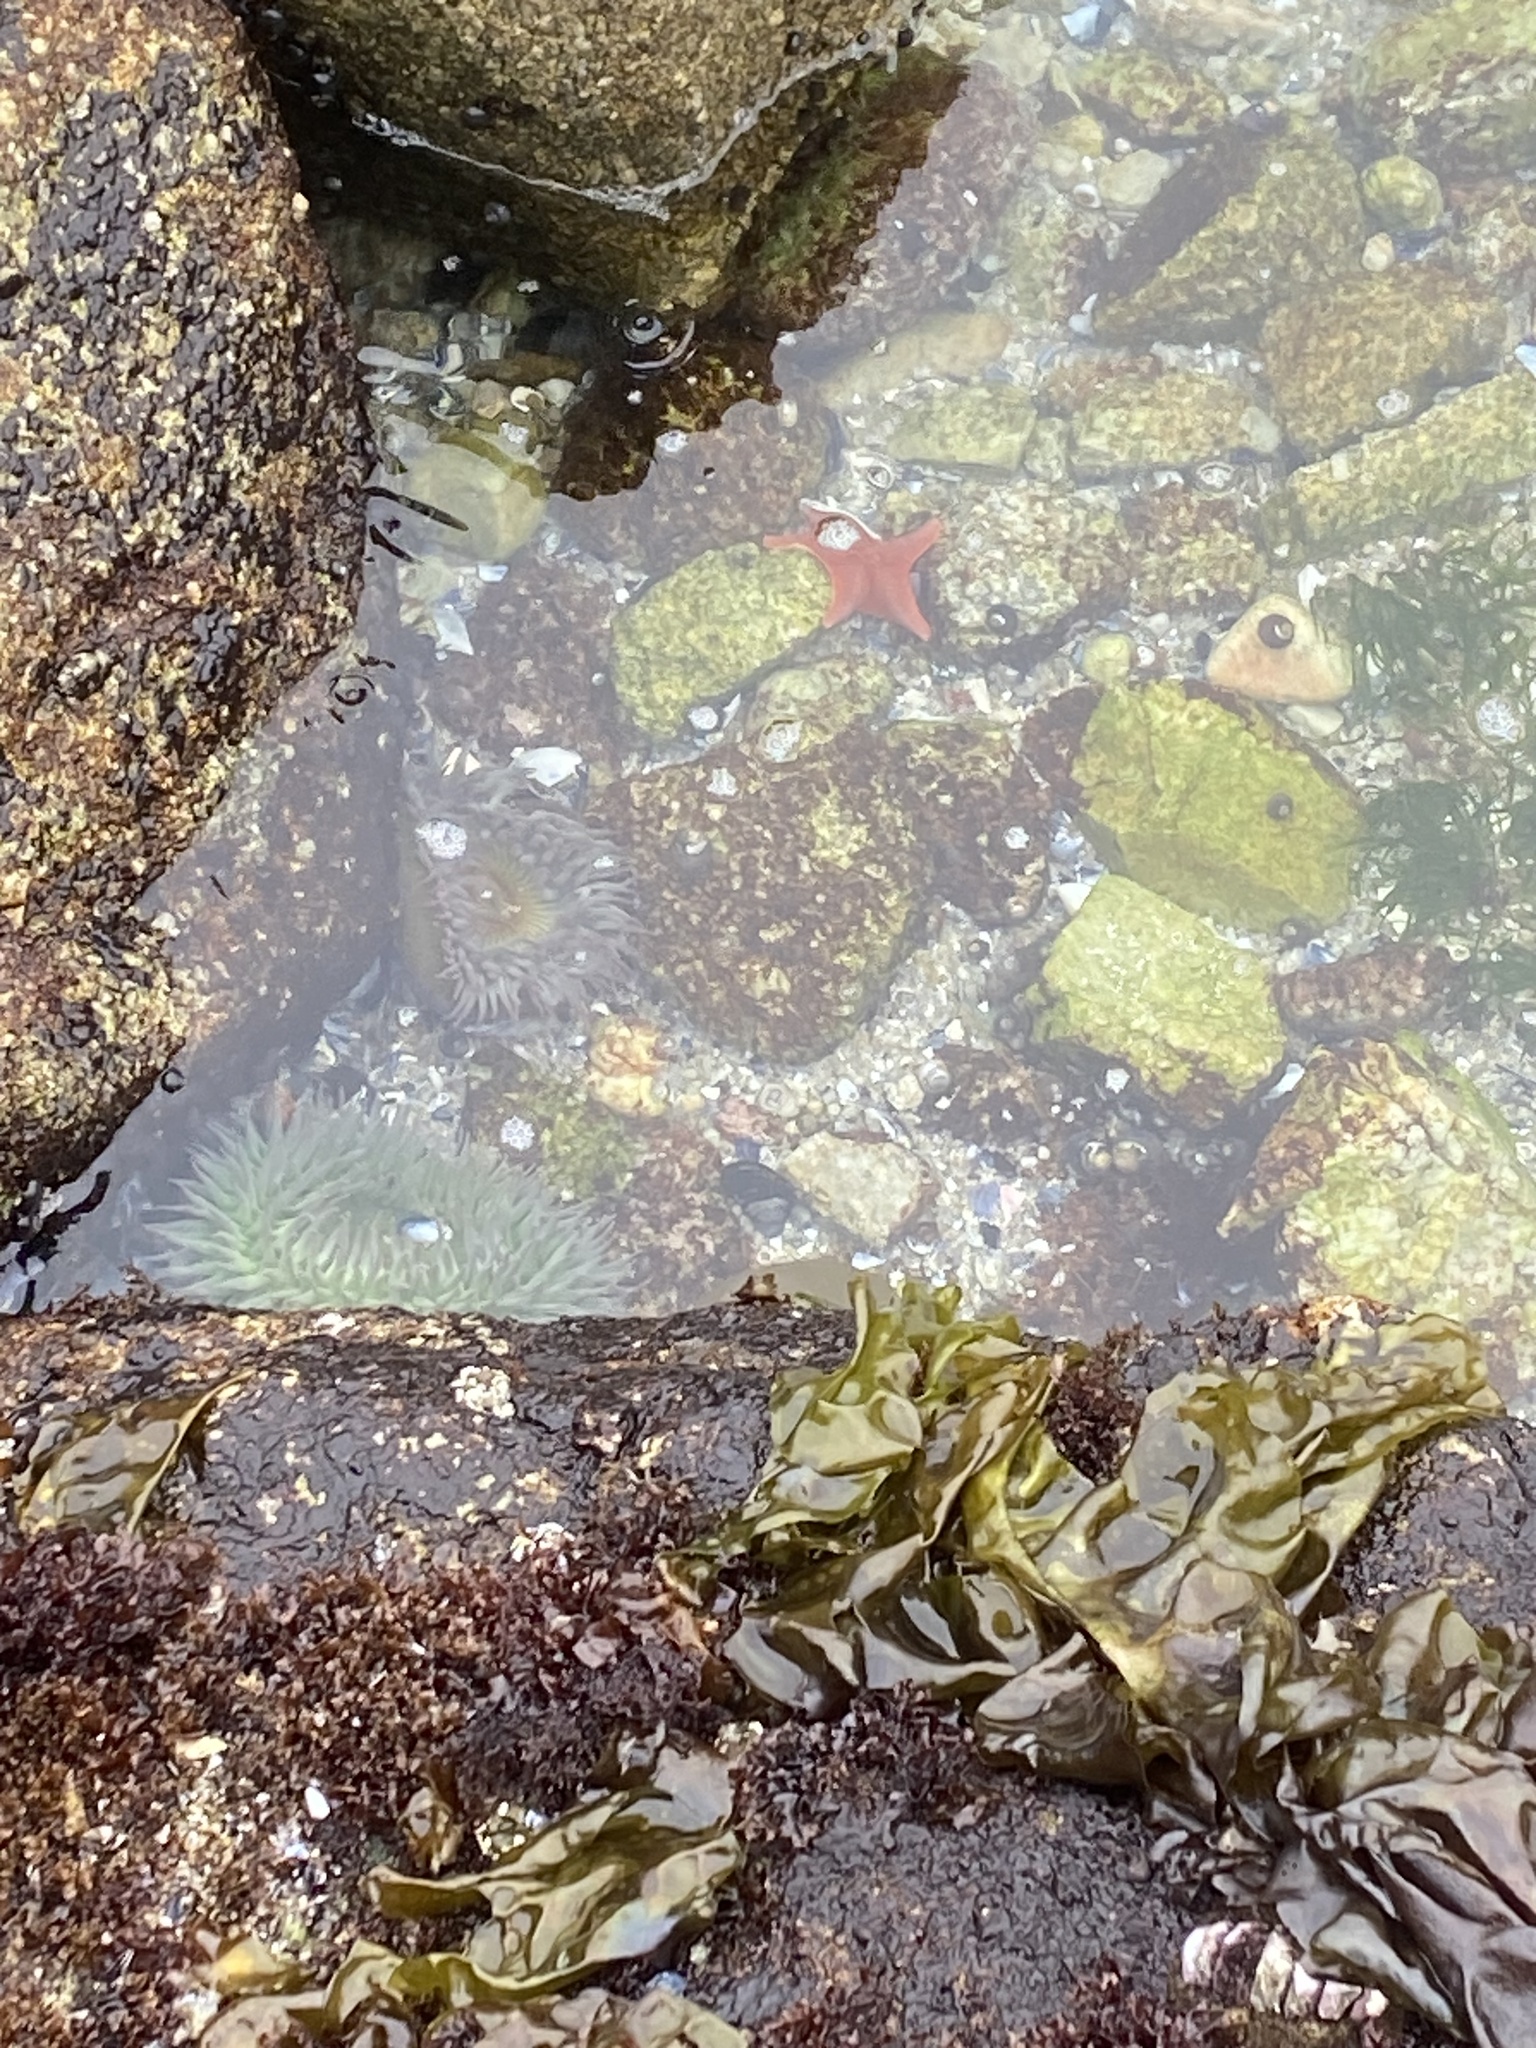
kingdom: Animalia
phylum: Echinodermata
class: Asteroidea
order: Valvatida
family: Asterinidae
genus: Patiria
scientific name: Patiria miniata
